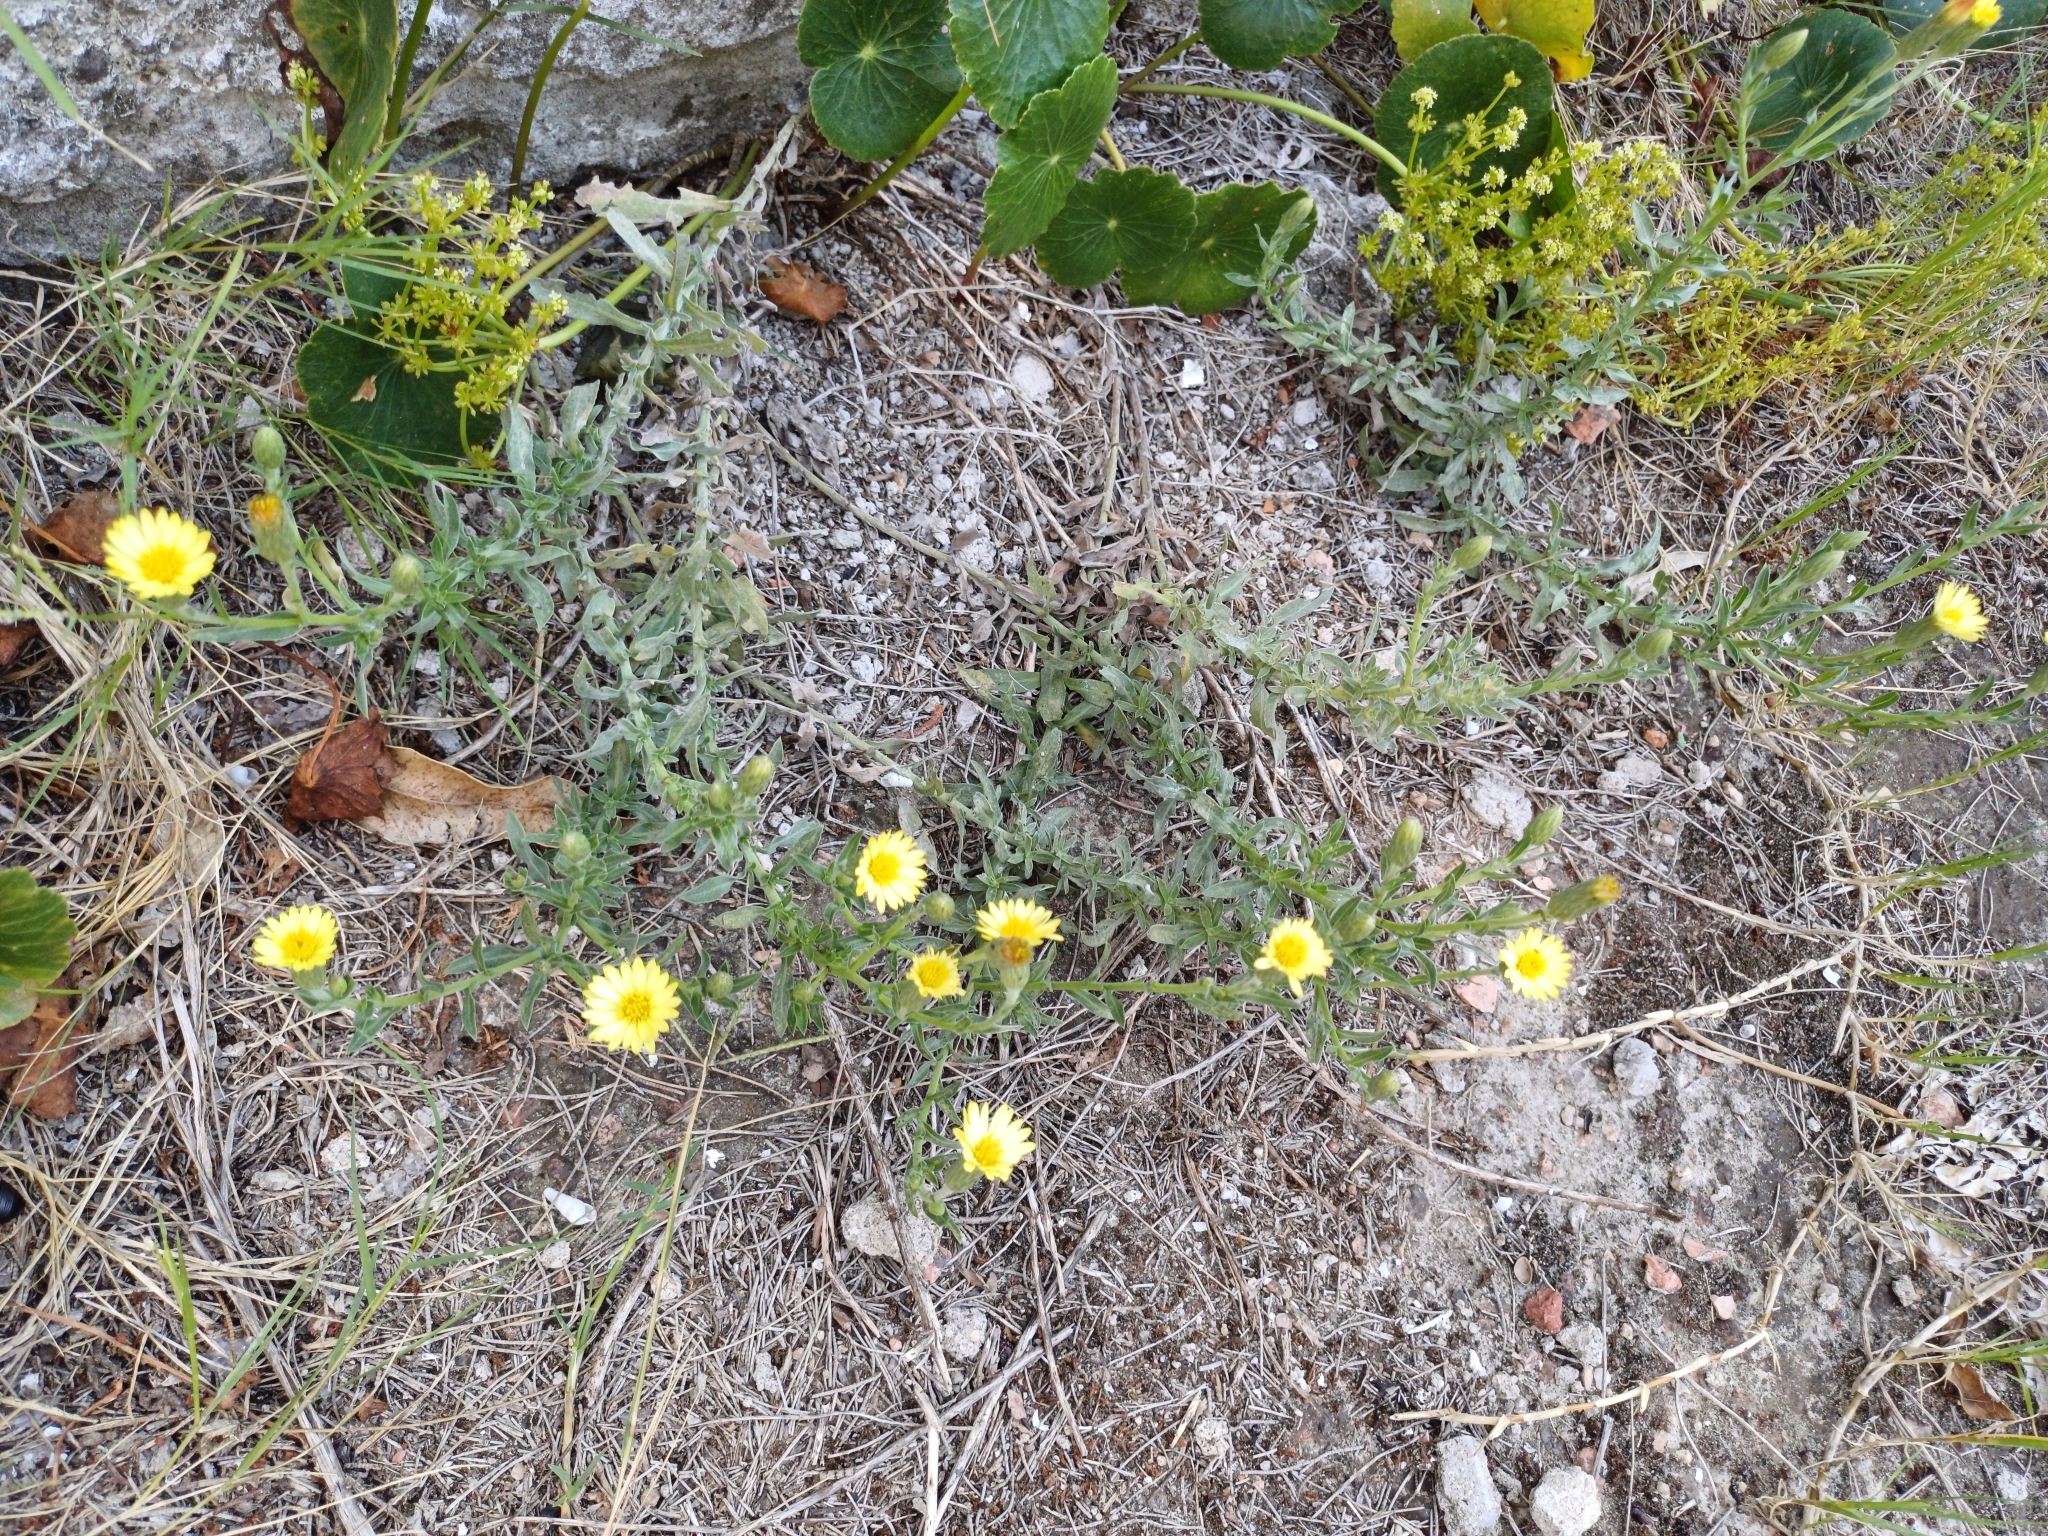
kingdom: Plantae
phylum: Tracheophyta
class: Magnoliopsida
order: Asterales
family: Asteraceae
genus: Noticastrum
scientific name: Noticastrum acuminatum
